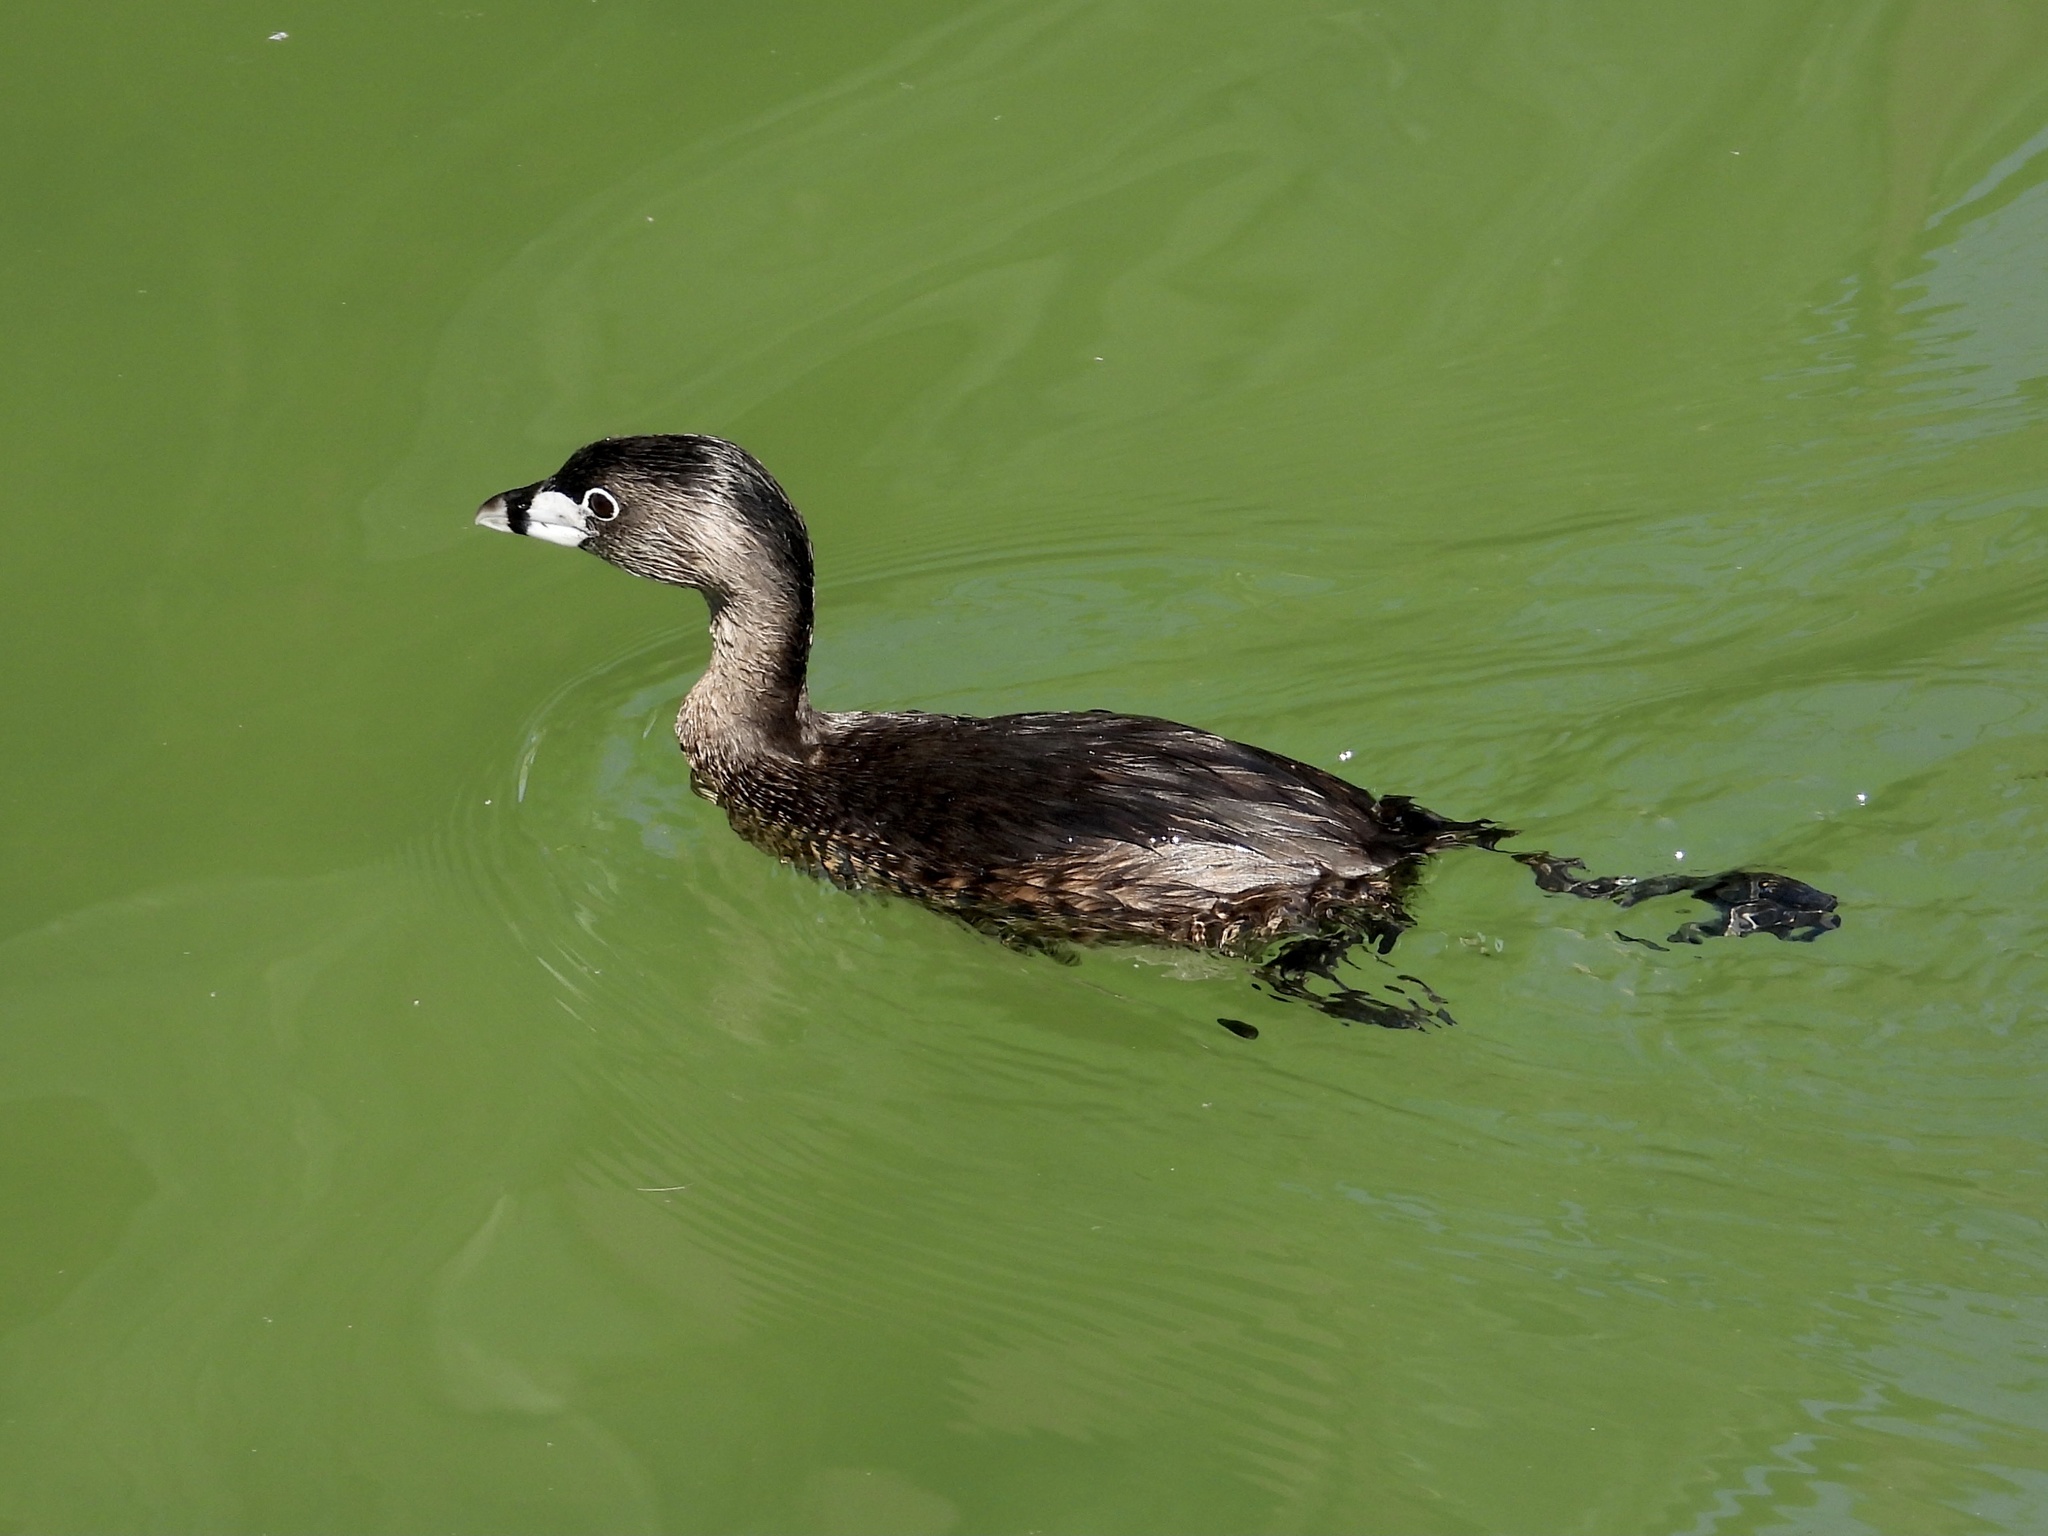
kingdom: Animalia
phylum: Chordata
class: Aves
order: Podicipediformes
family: Podicipedidae
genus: Podilymbus
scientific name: Podilymbus podiceps
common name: Pied-billed grebe
